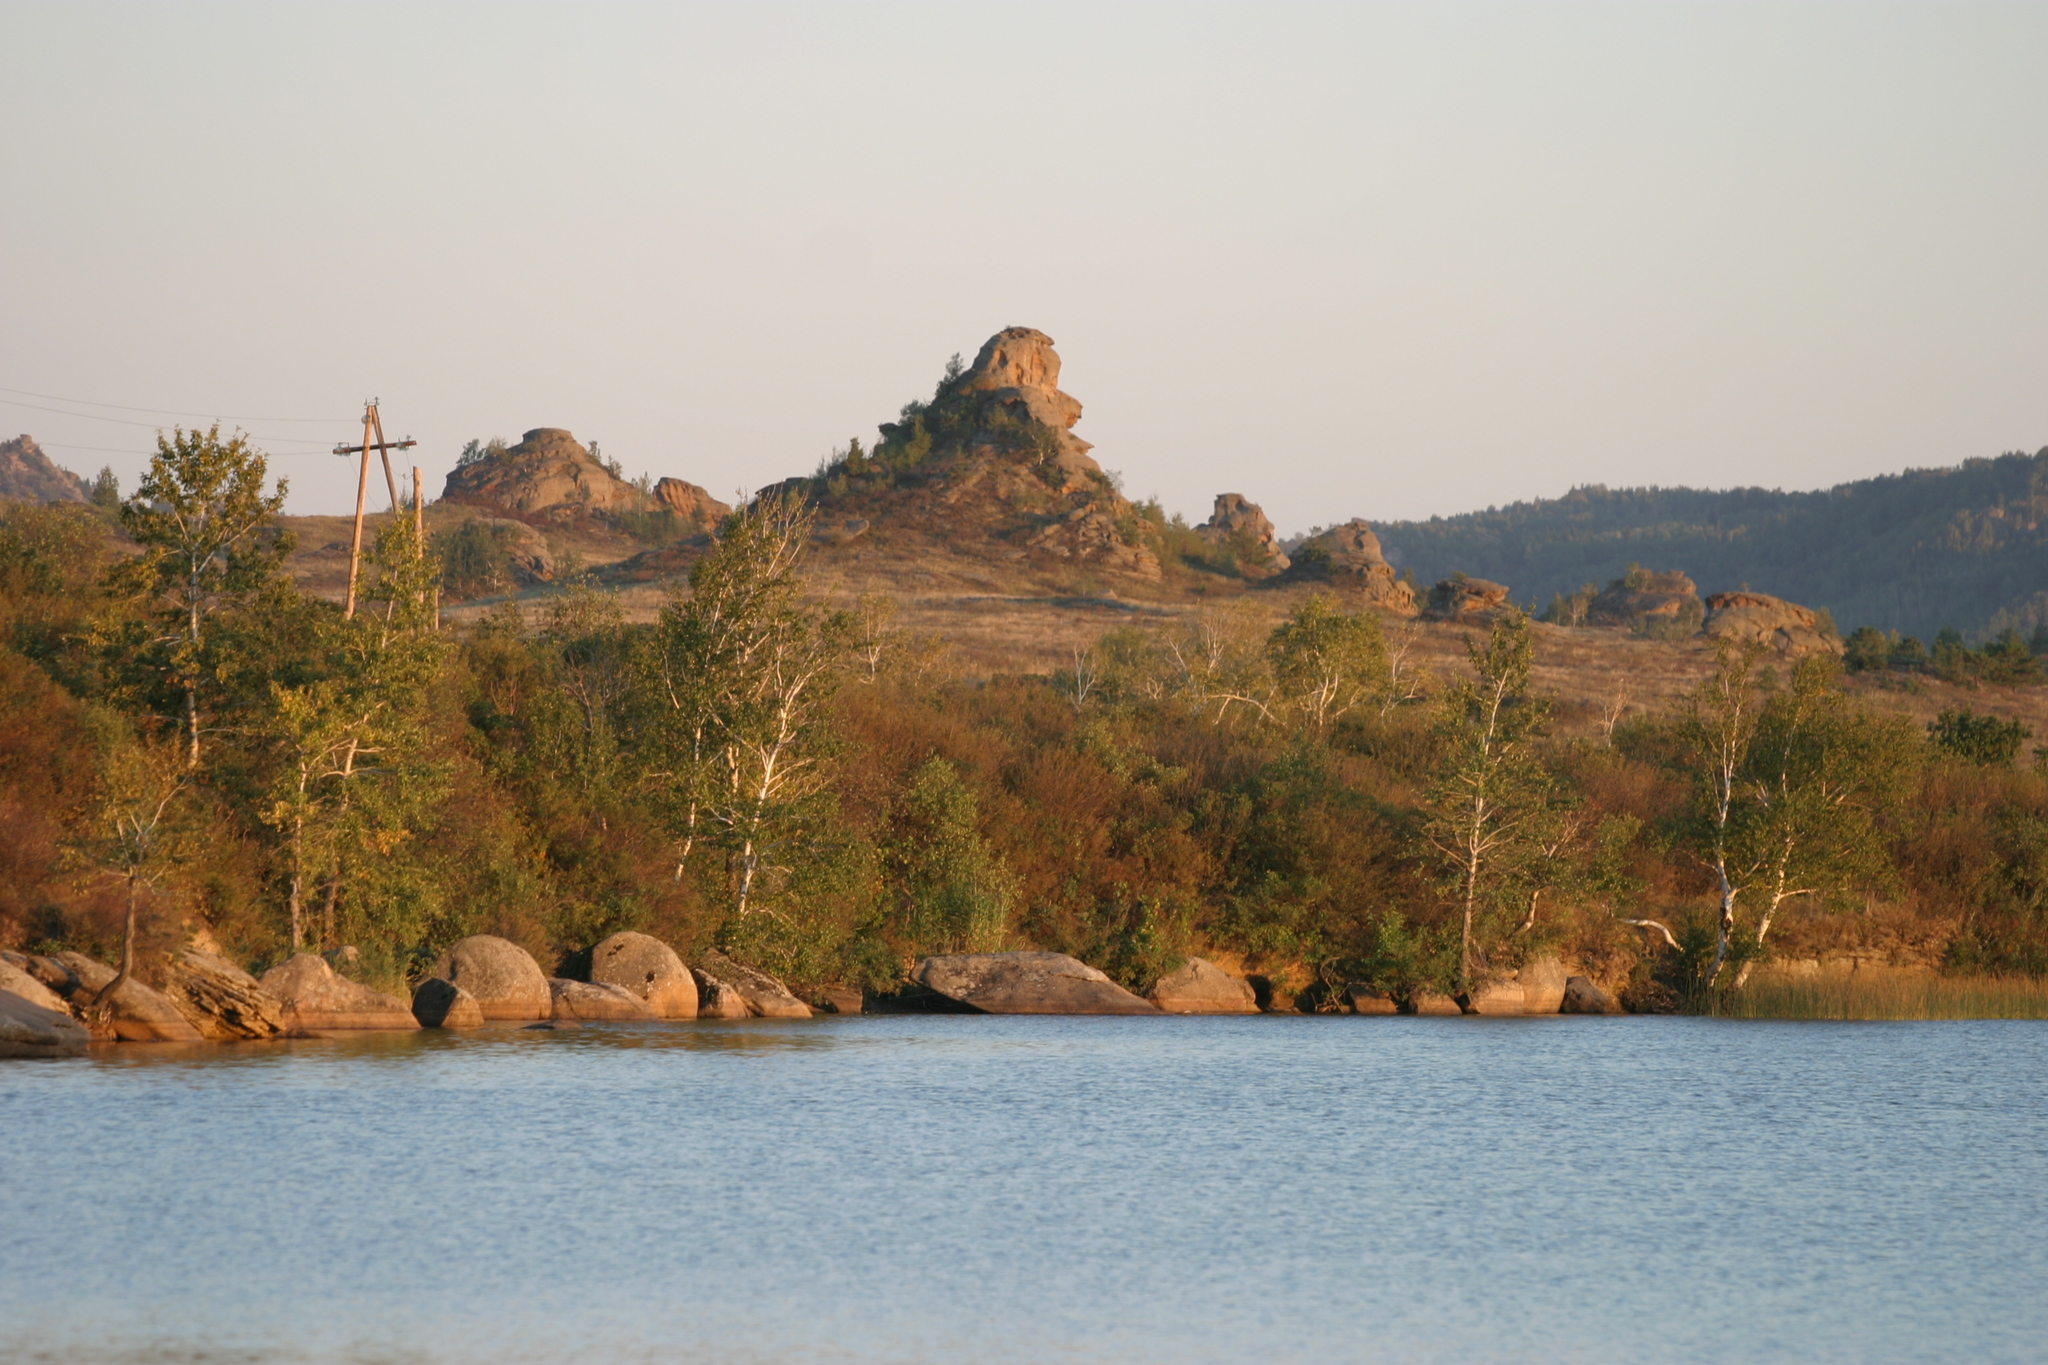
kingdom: Plantae
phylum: Tracheophyta
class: Magnoliopsida
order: Fagales
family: Betulaceae
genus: Betula
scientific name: Betula pendula
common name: Silver birch
